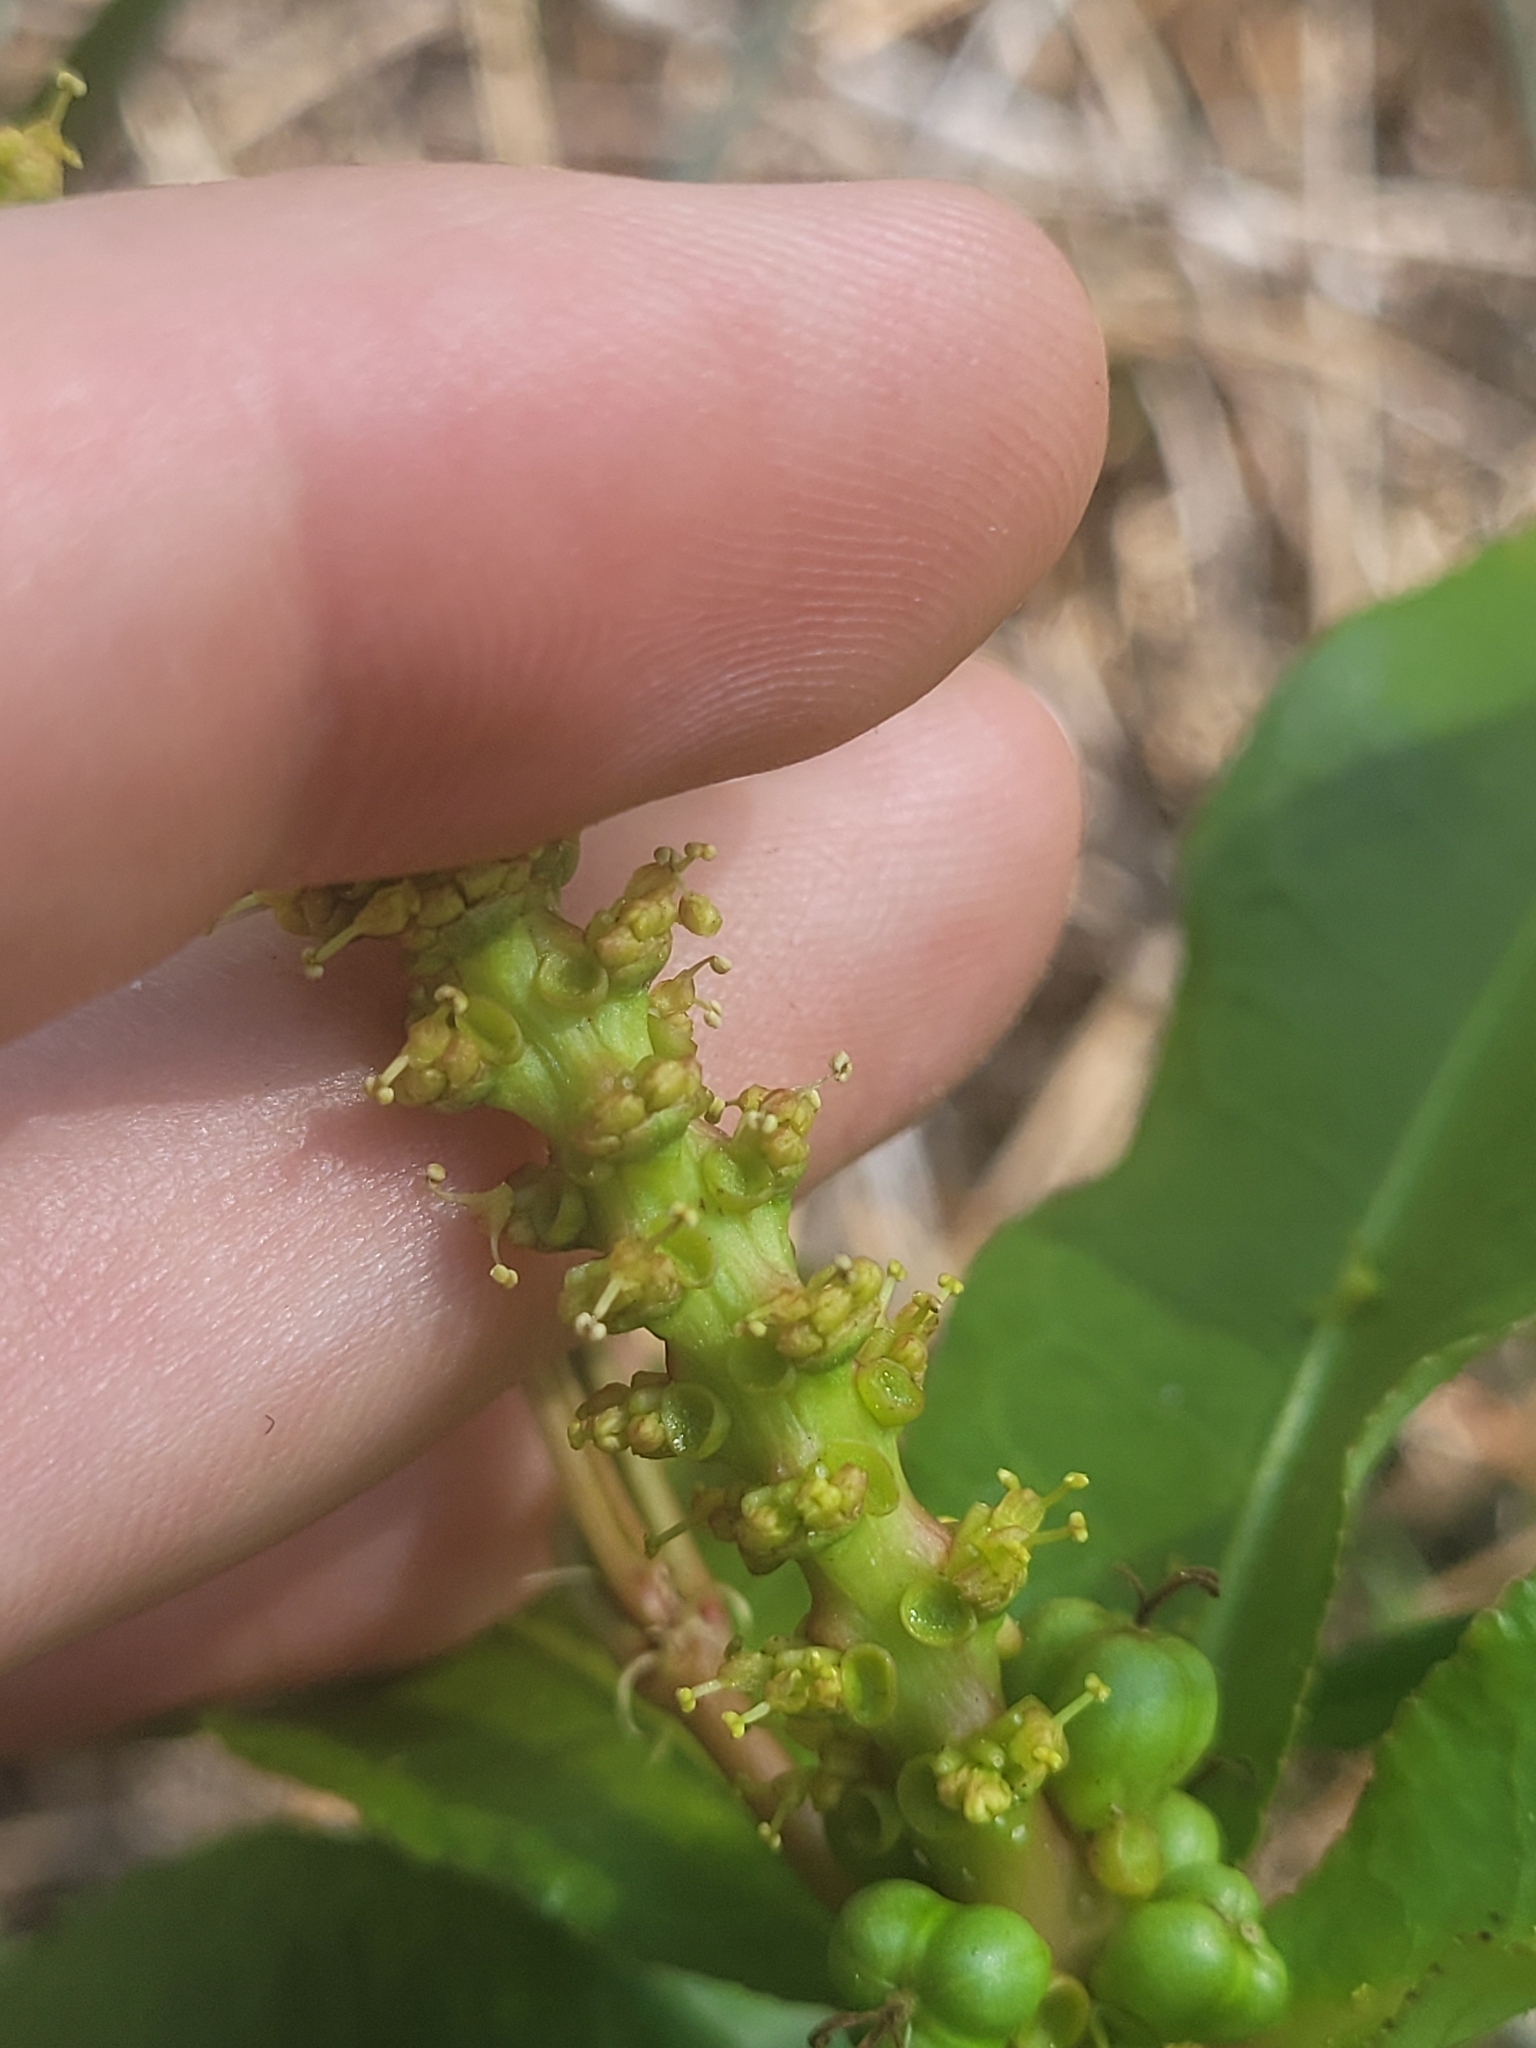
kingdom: Plantae
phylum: Tracheophyta
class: Magnoliopsida
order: Malpighiales
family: Euphorbiaceae
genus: Stillingia
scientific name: Stillingia sylvatica
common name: Queen's-delight
